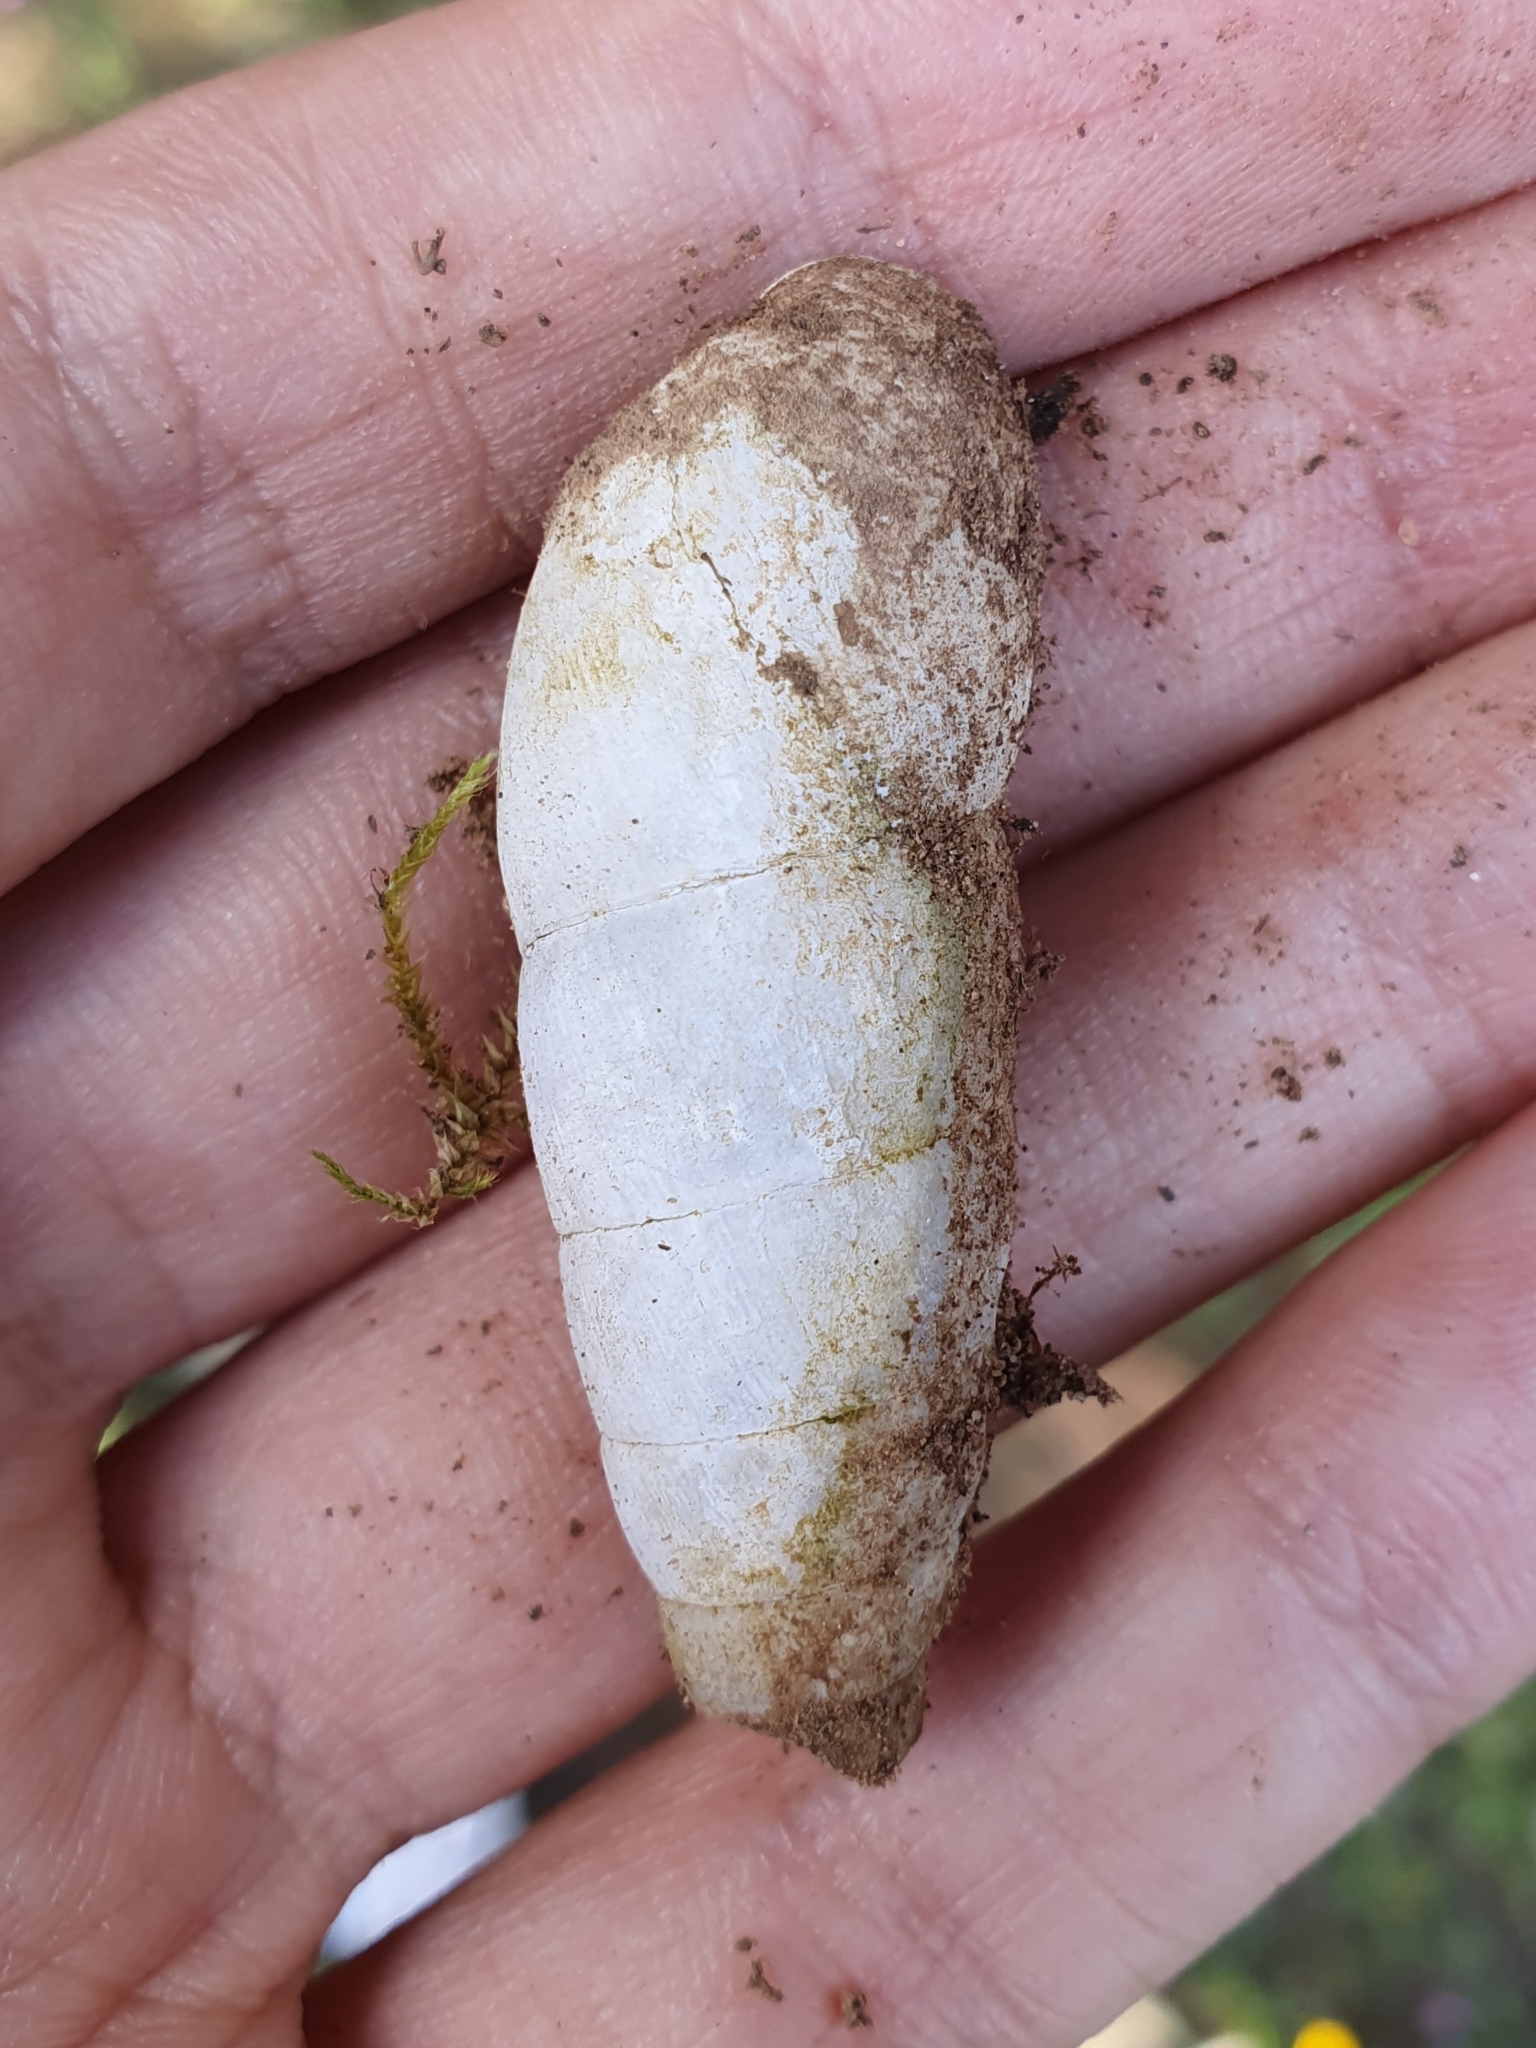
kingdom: Animalia
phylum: Mollusca
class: Gastropoda
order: Stylommatophora
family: Achatinidae
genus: Rumina
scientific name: Rumina decollata
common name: Decollate snail
